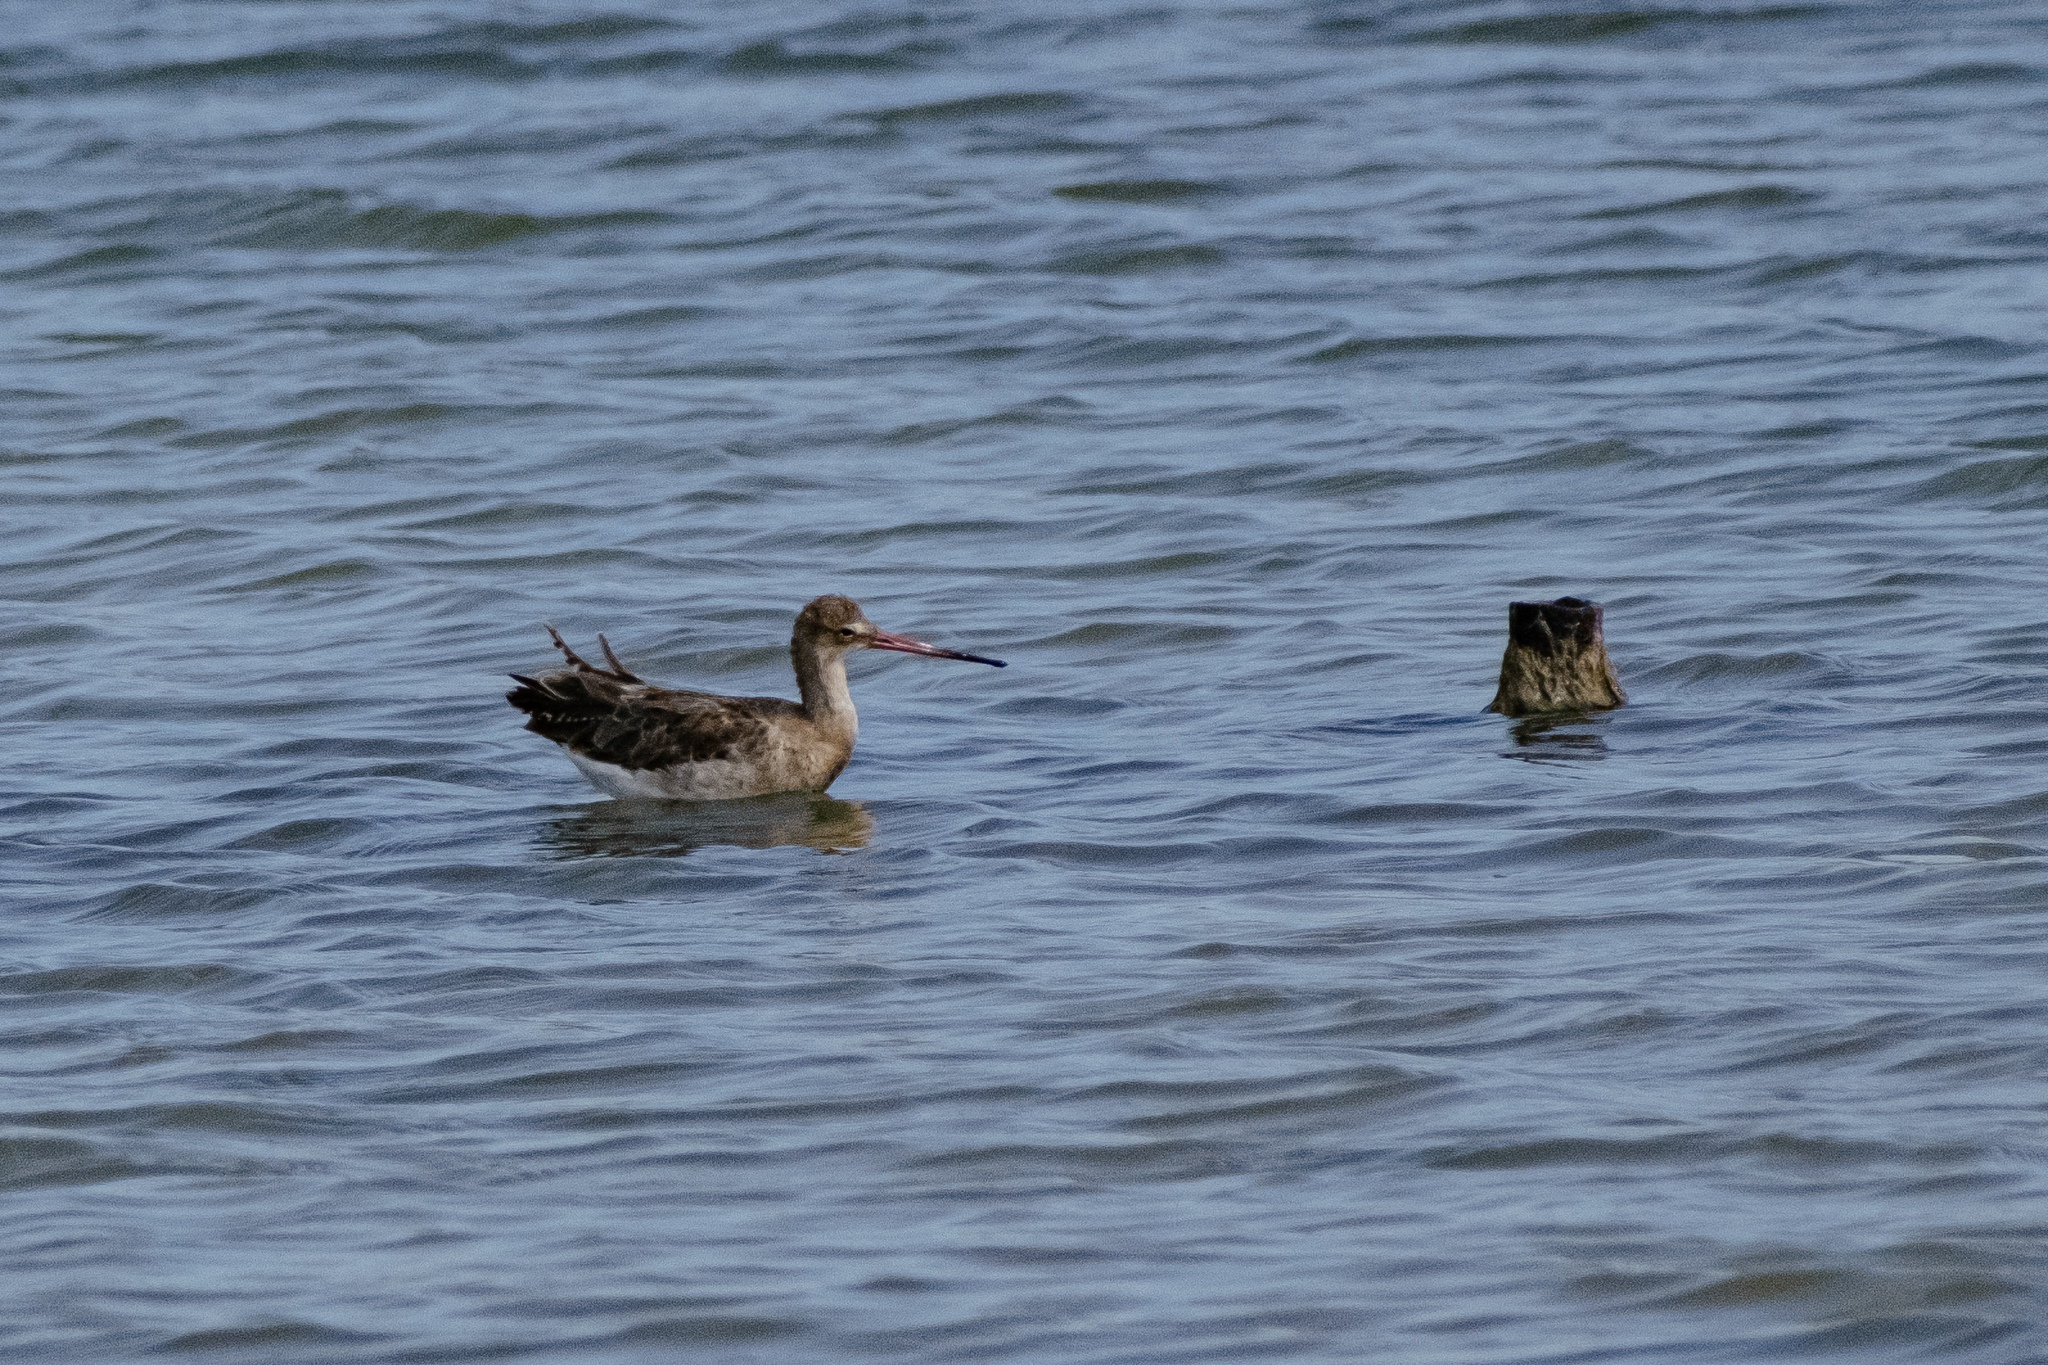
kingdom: Animalia
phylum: Chordata
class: Aves
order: Charadriiformes
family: Scolopacidae
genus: Limosa
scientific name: Limosa limosa
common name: Black-tailed godwit
